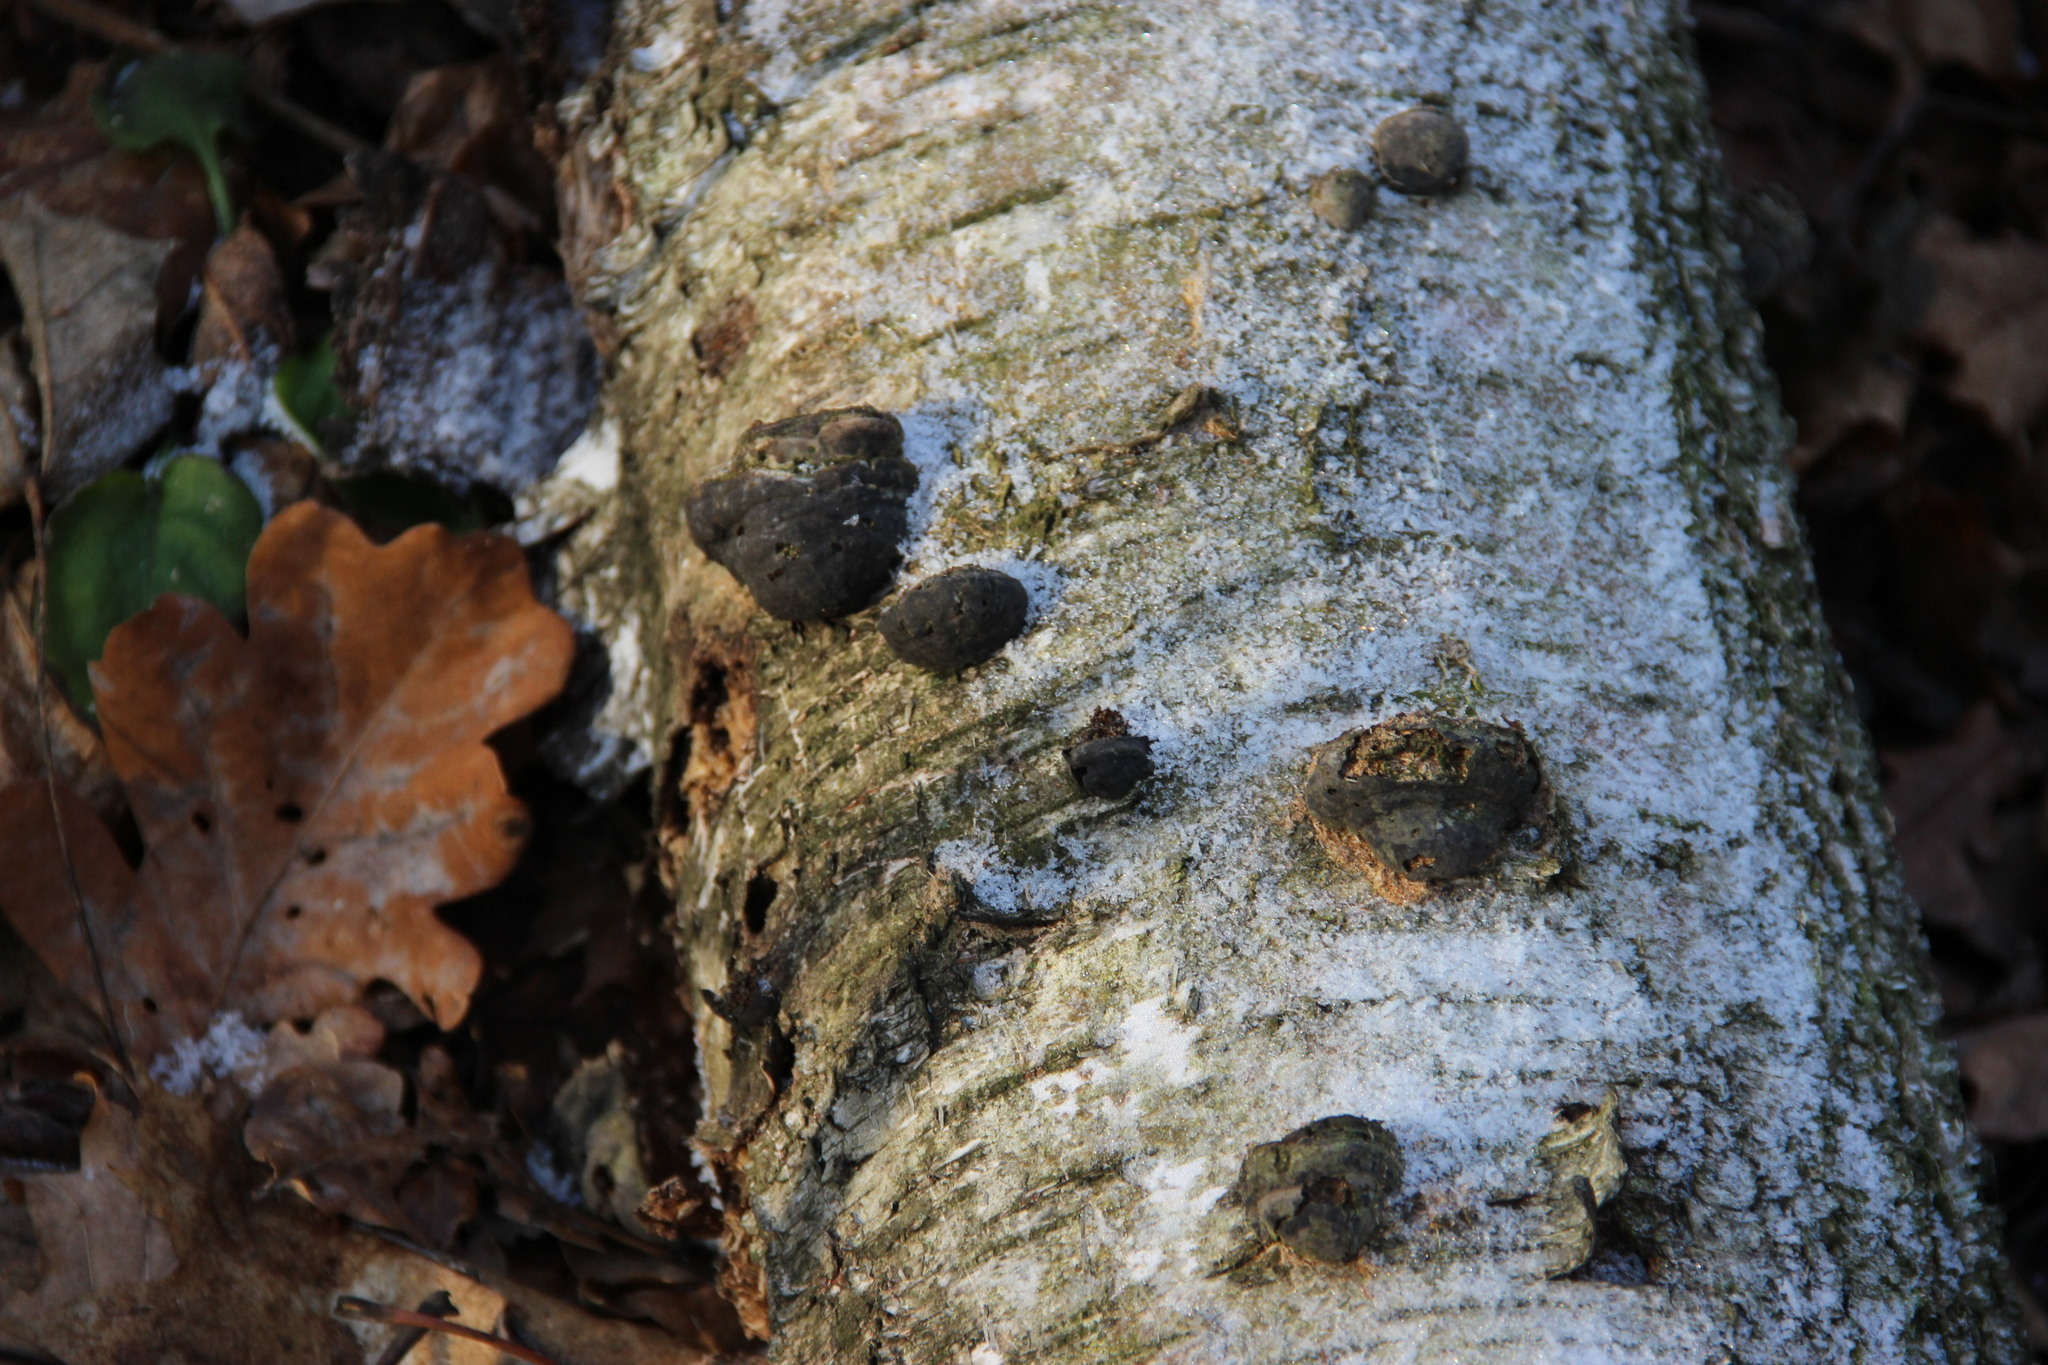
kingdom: Fungi
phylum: Basidiomycota
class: Agaricomycetes
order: Polyporales
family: Polyporaceae
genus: Fomes
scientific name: Fomes fomentarius
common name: Hoof fungus
